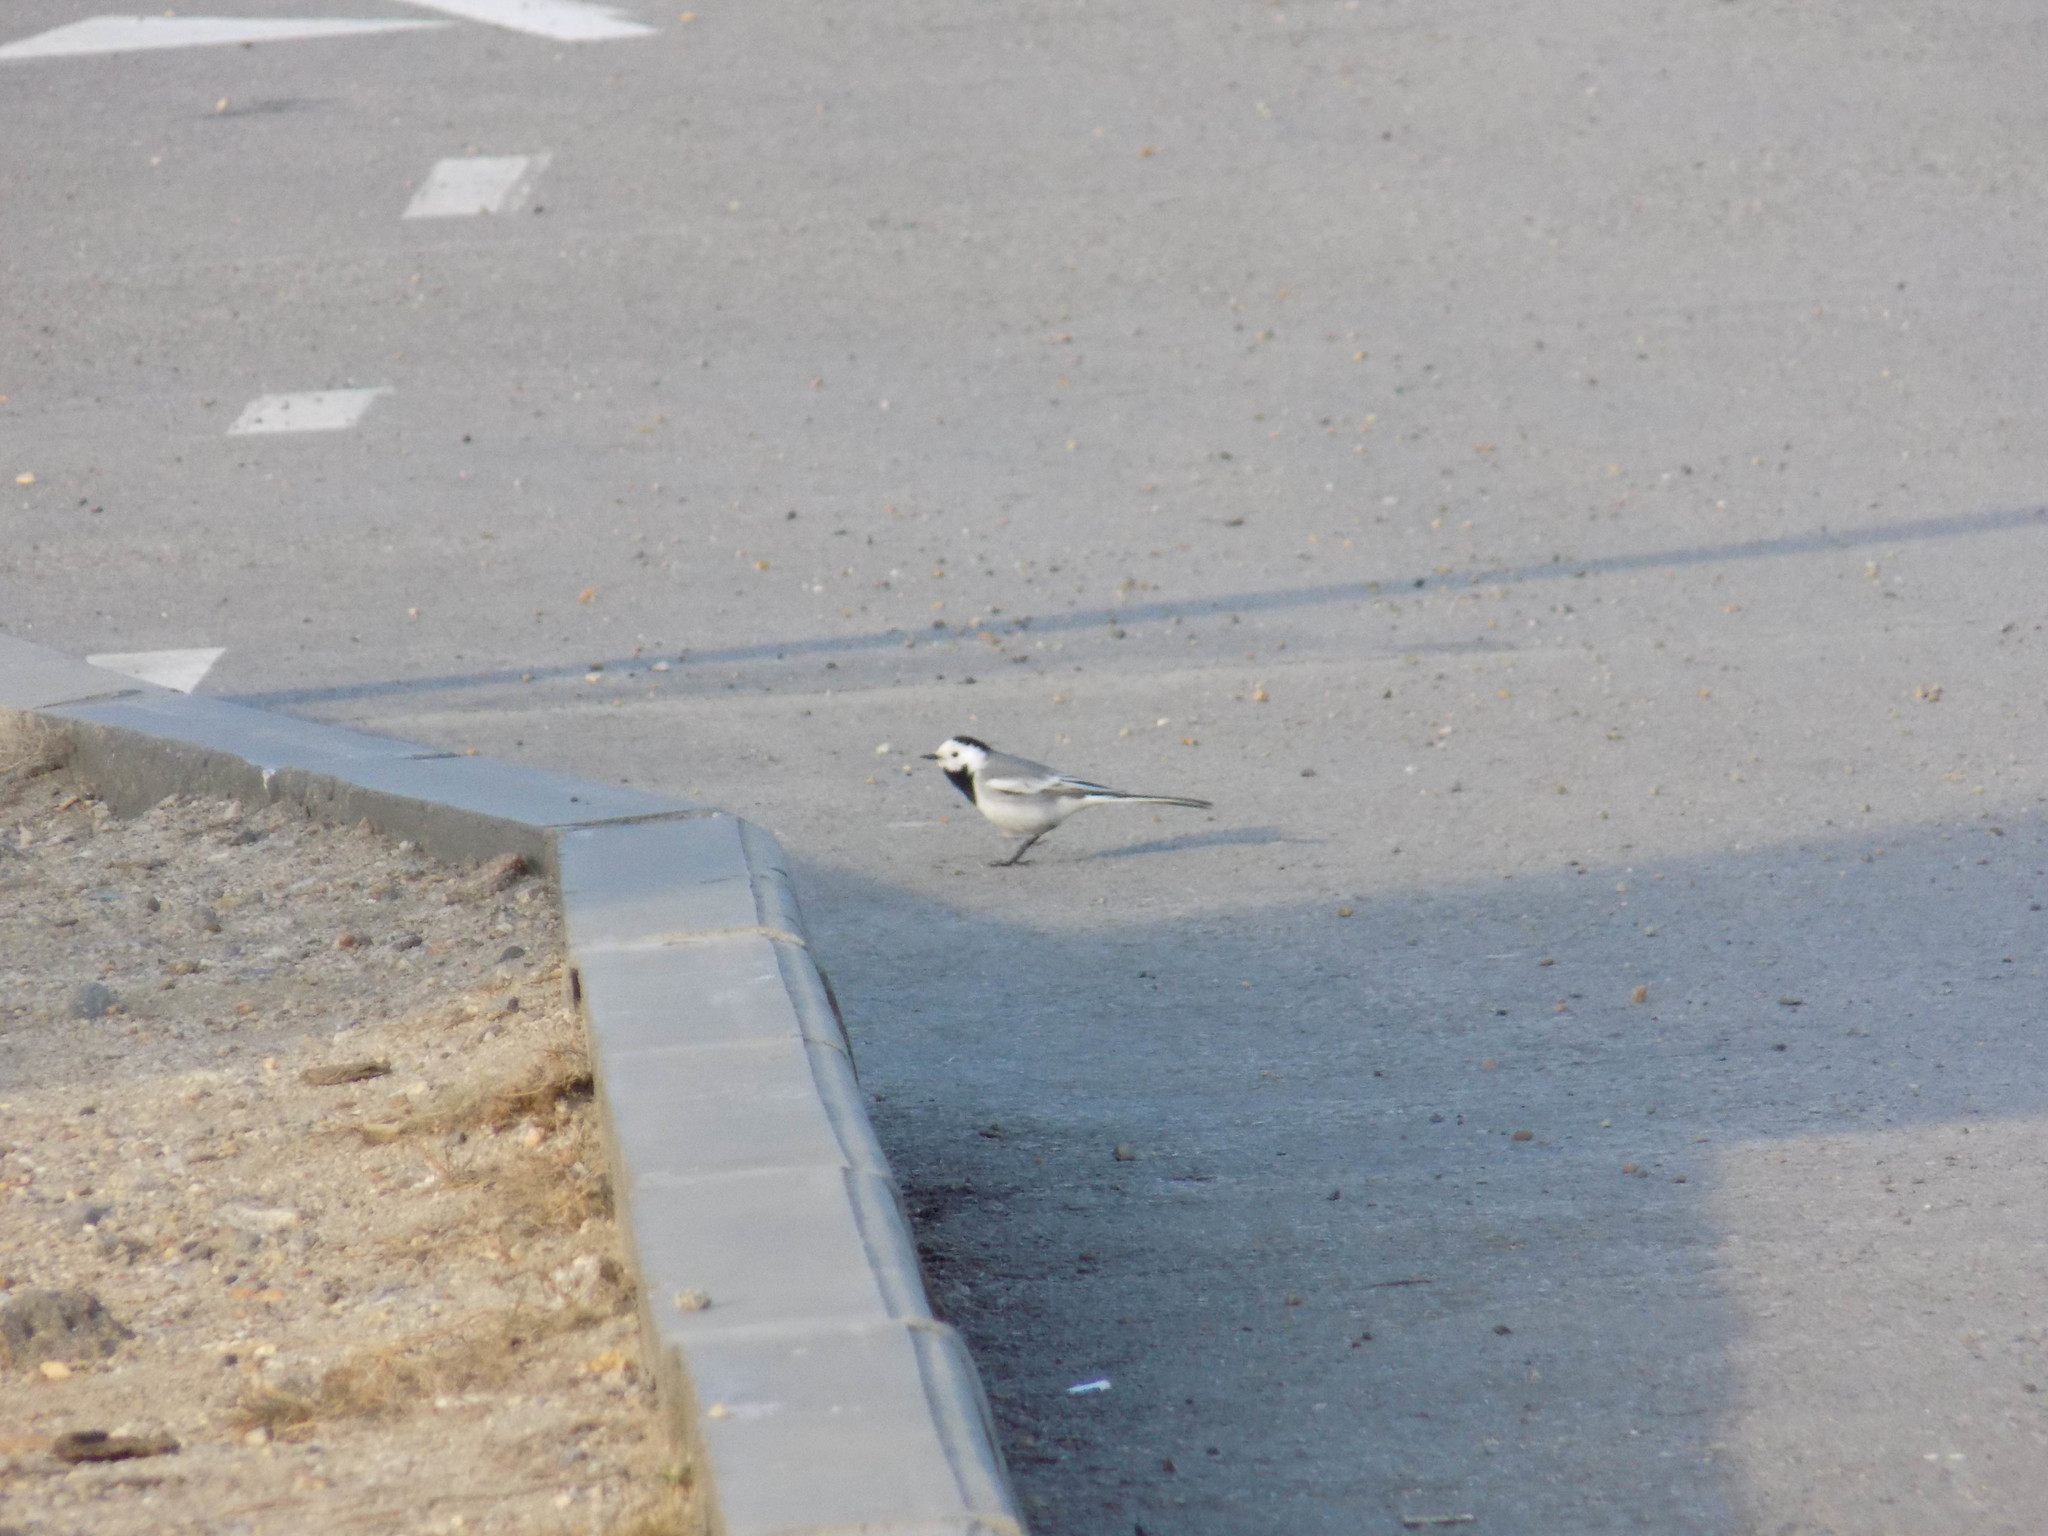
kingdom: Animalia
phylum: Chordata
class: Aves
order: Passeriformes
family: Motacillidae
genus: Motacilla
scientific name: Motacilla alba
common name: White wagtail
